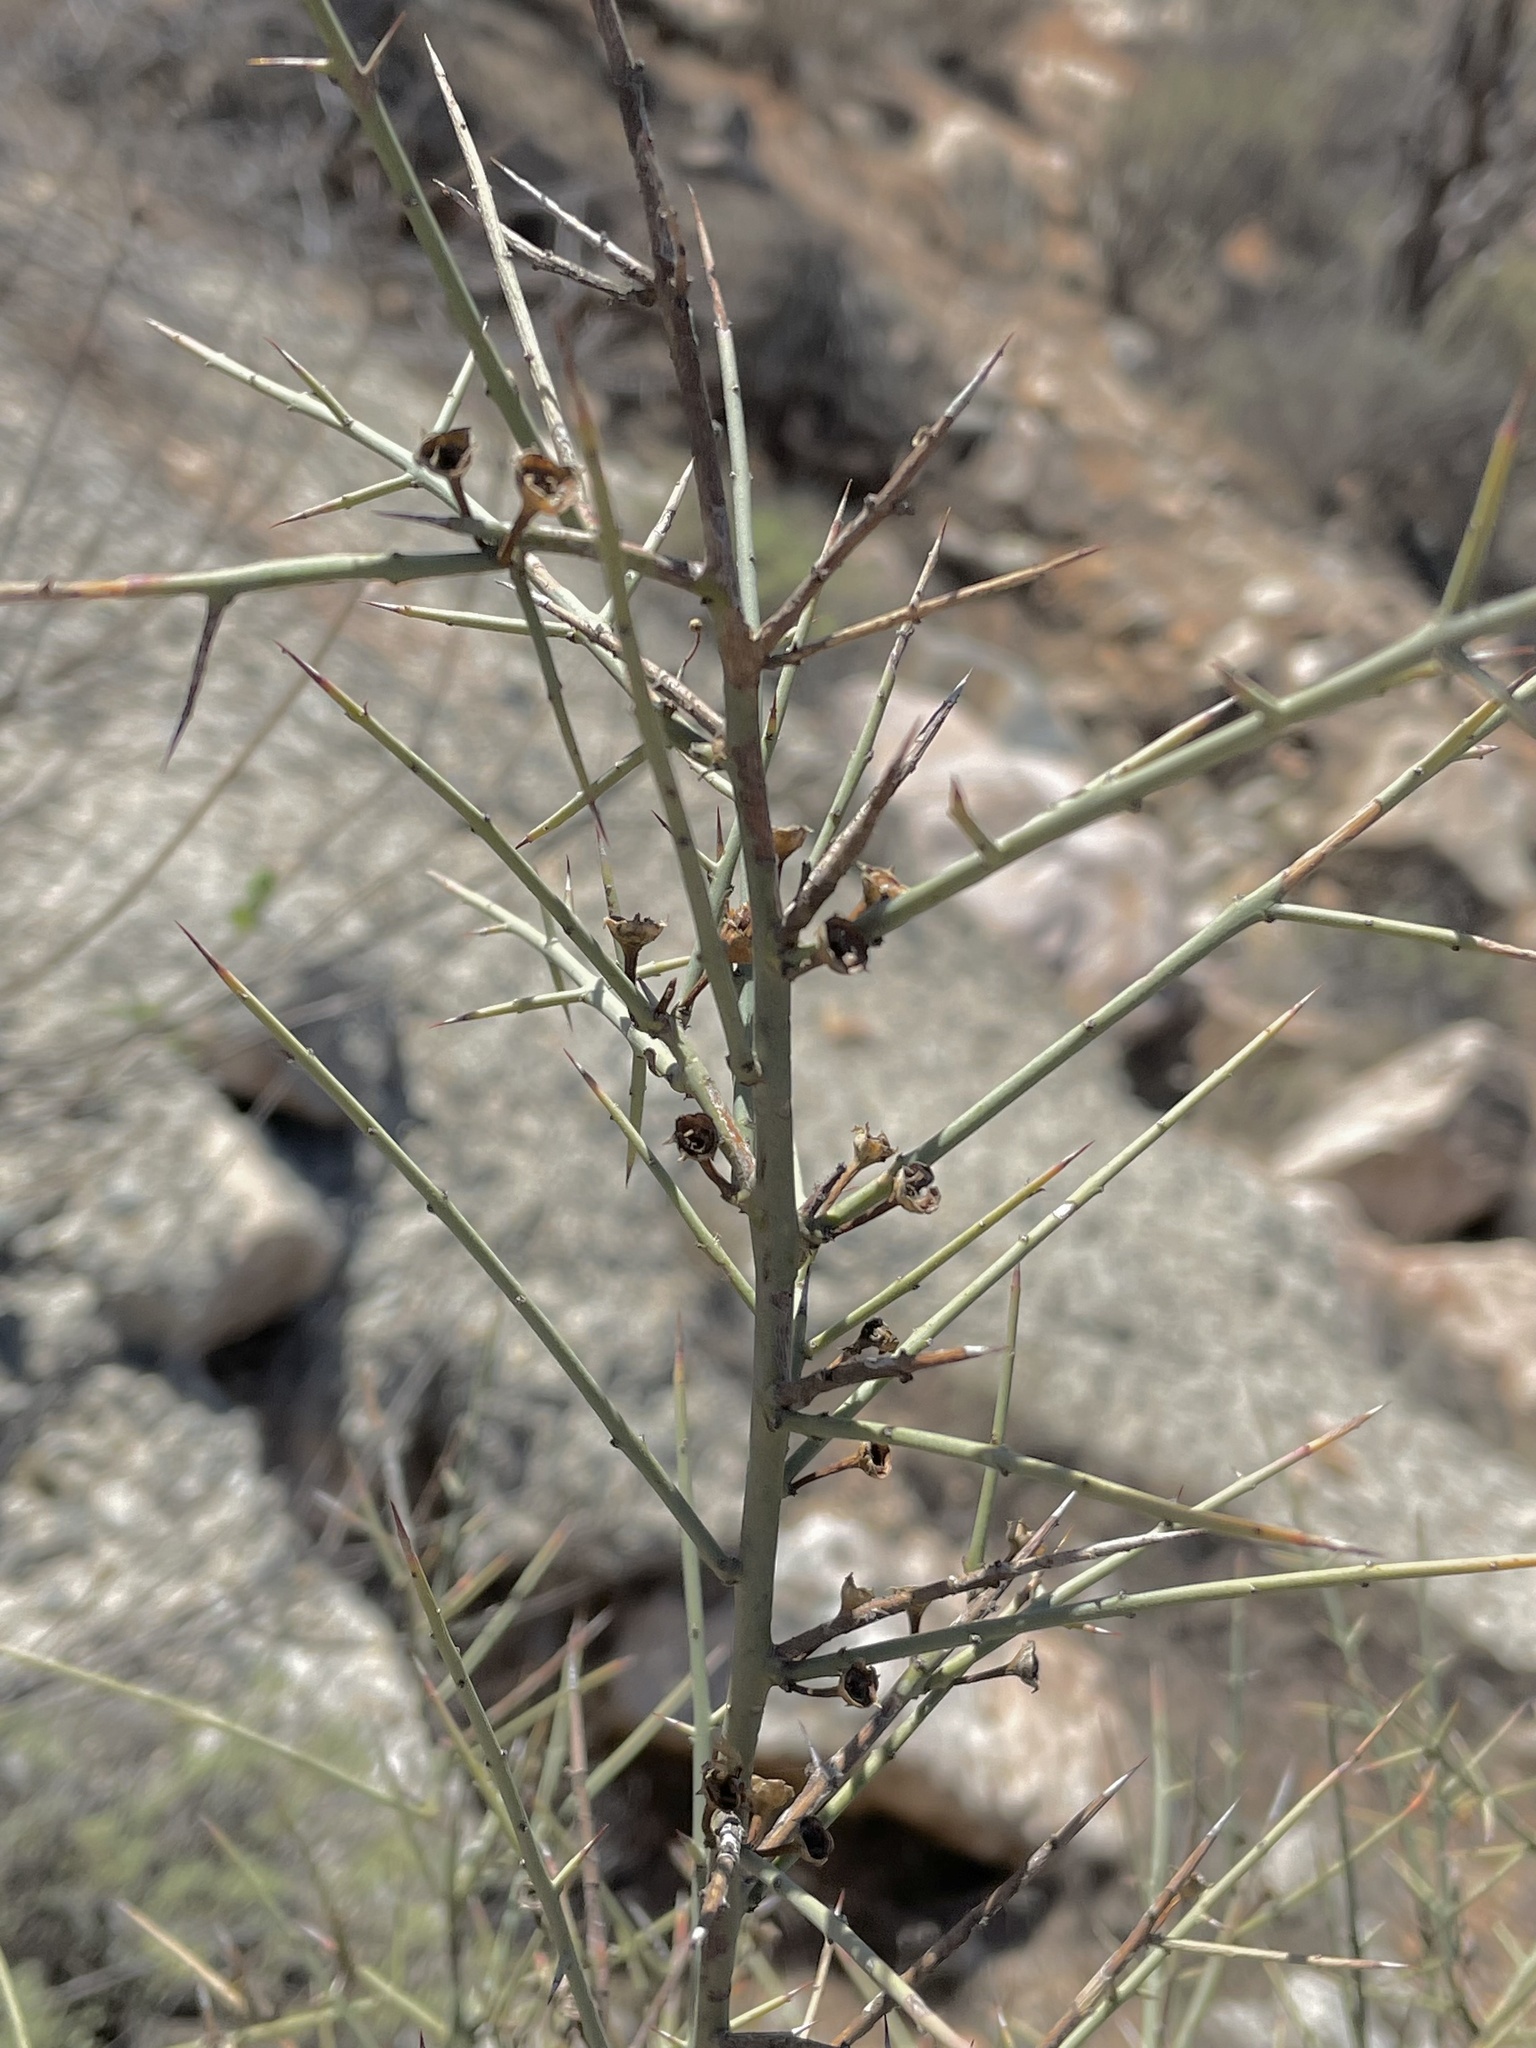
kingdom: Plantae
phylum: Tracheophyta
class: Magnoliopsida
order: Rosales
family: Rhamnaceae
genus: Adolphia
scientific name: Adolphia californica
